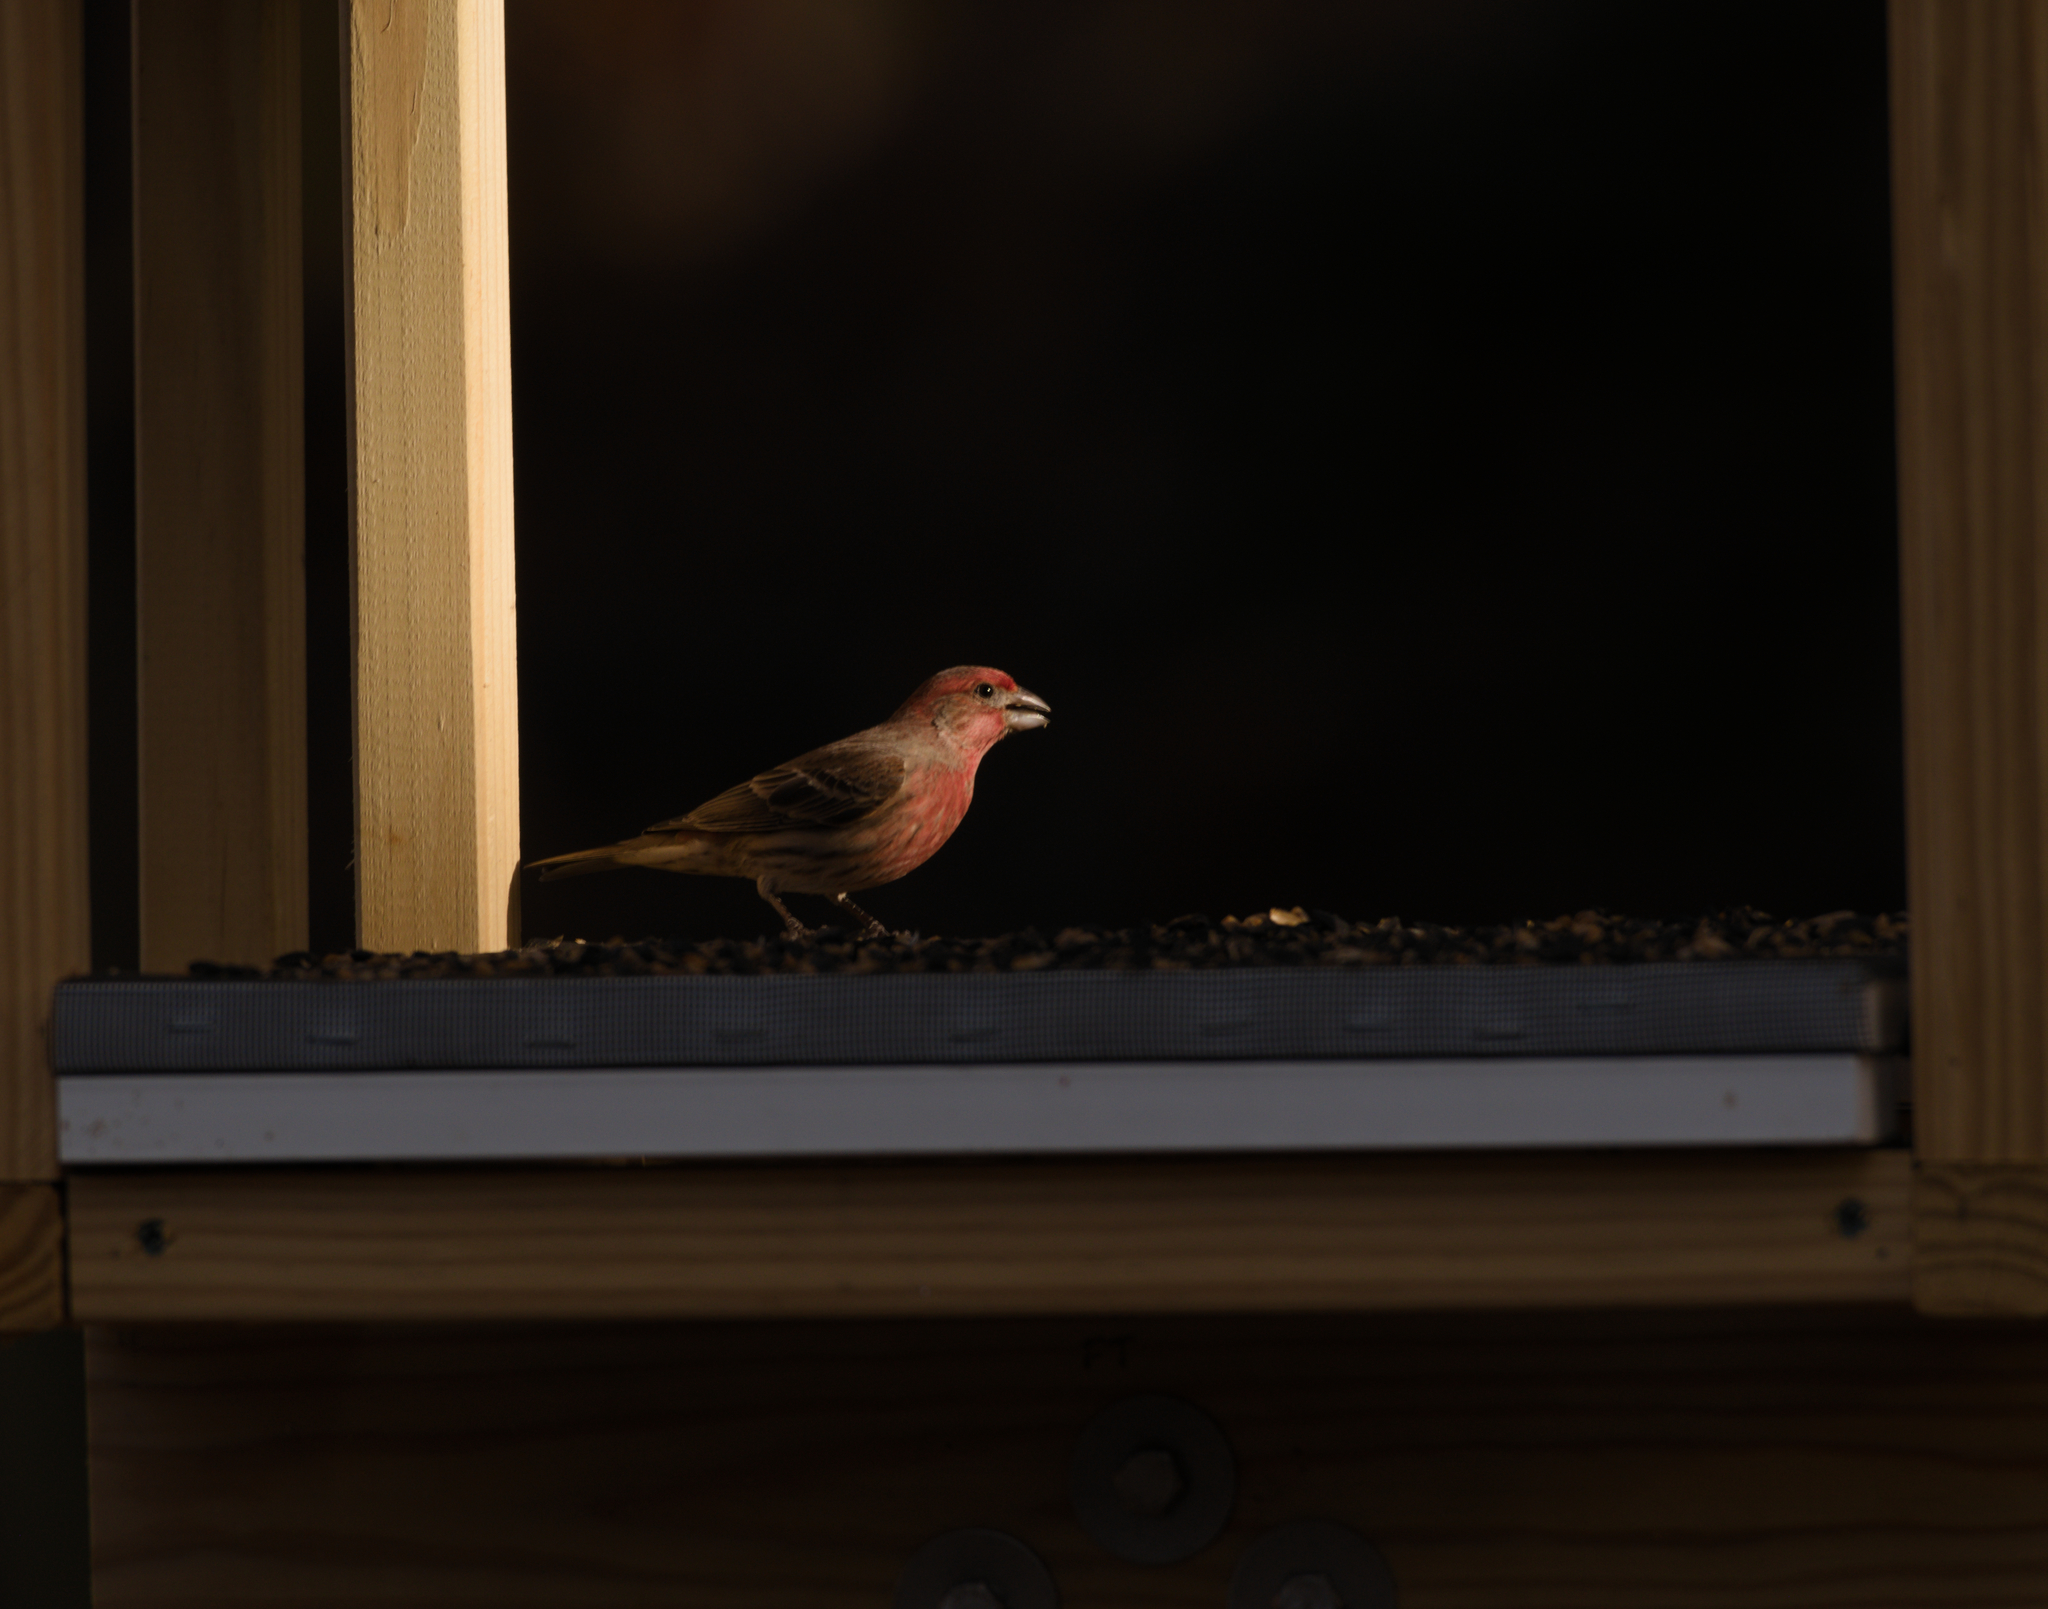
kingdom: Animalia
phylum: Chordata
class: Aves
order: Passeriformes
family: Fringillidae
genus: Haemorhous
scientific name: Haemorhous mexicanus
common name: House finch
